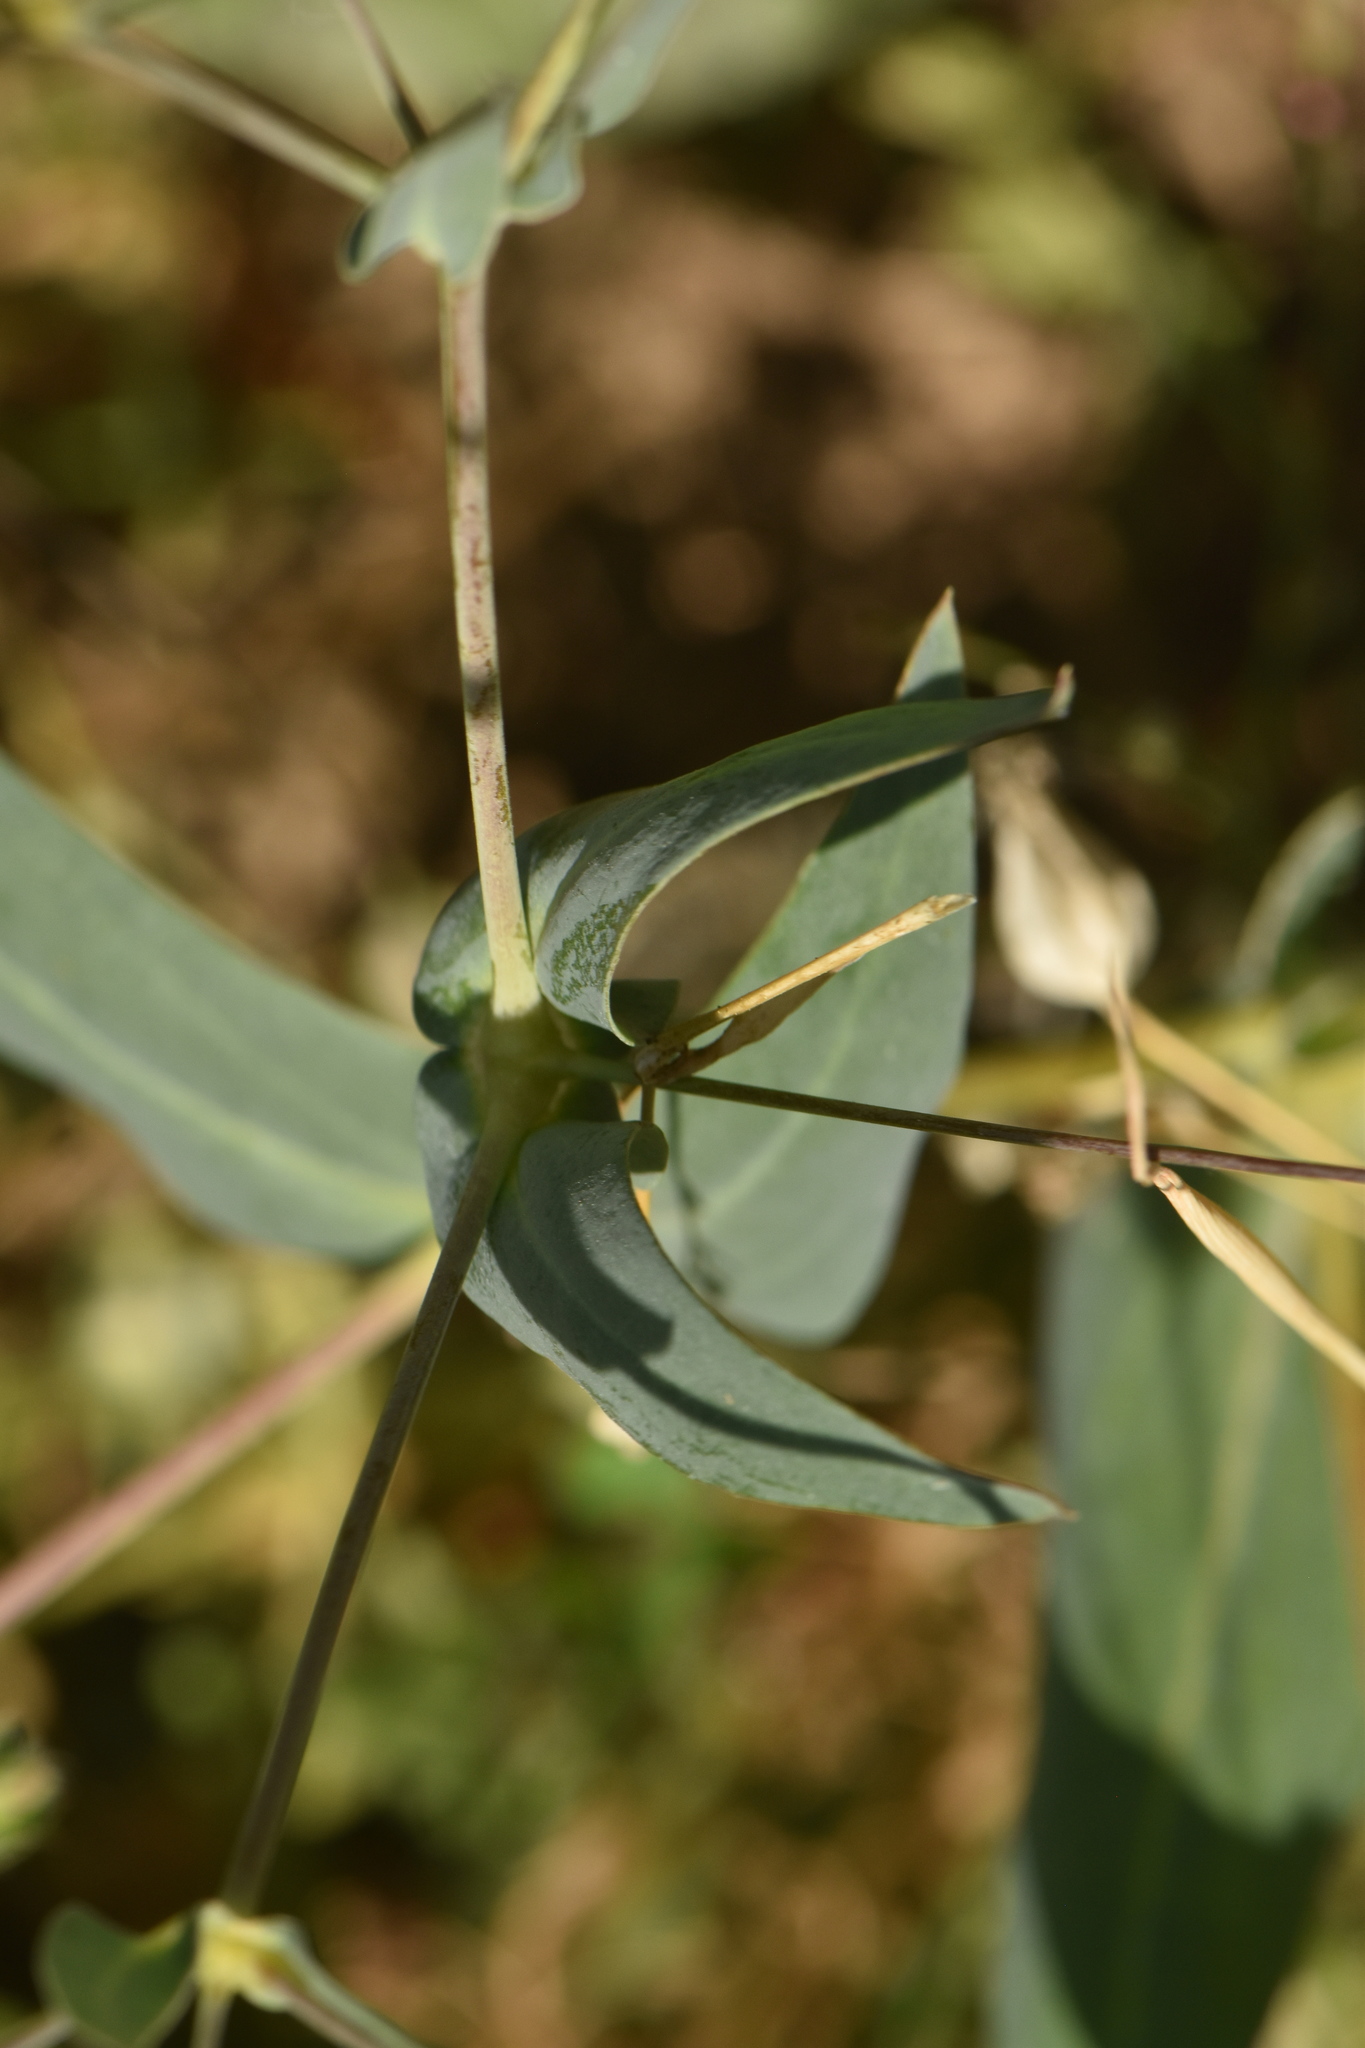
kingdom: Plantae
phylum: Tracheophyta
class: Magnoliopsida
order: Caryophyllales
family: Caryophyllaceae
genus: Gypsophila
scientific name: Gypsophila vaccaria
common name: Cow soapwort
